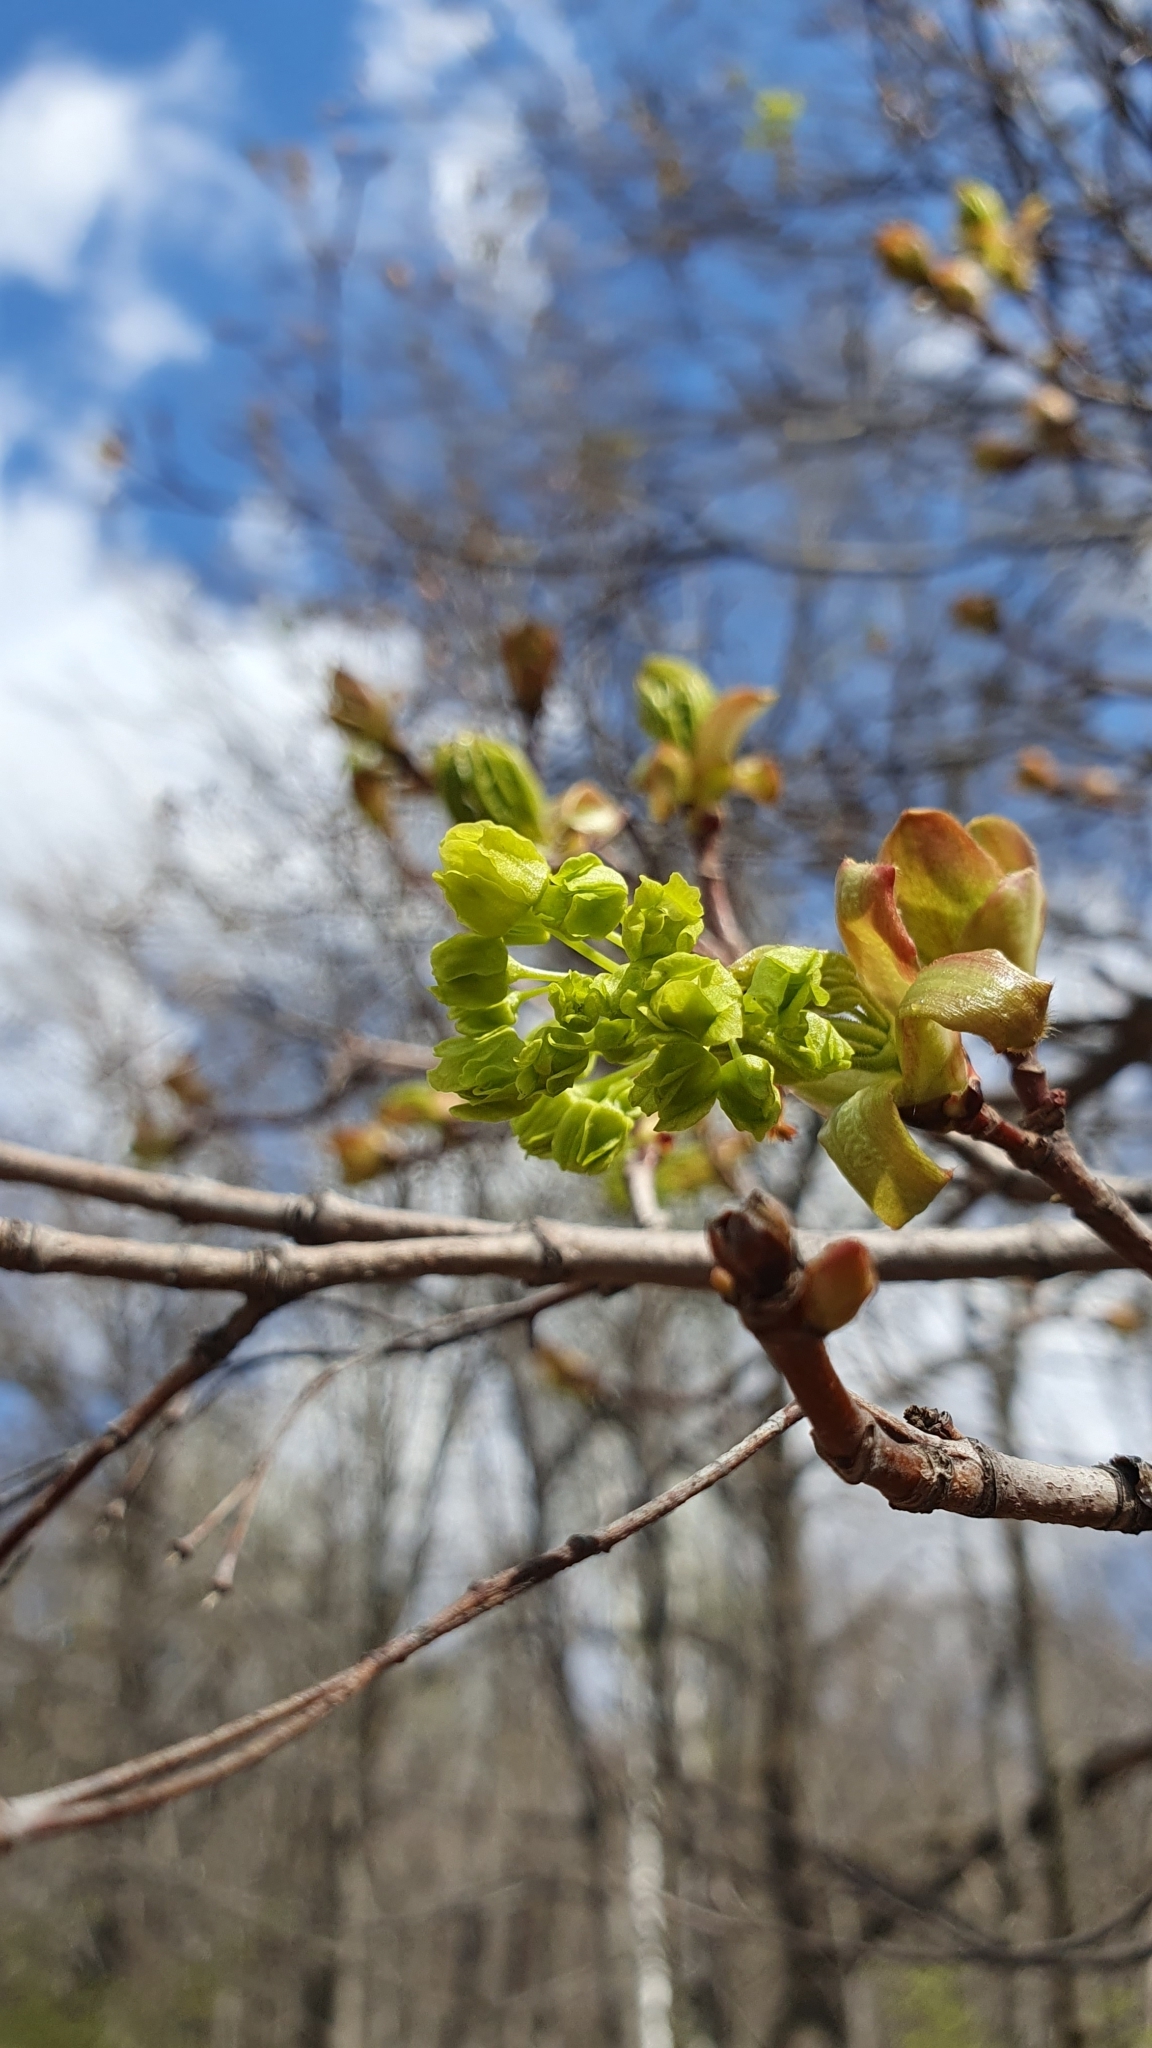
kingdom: Plantae
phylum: Tracheophyta
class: Magnoliopsida
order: Sapindales
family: Sapindaceae
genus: Acer
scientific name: Acer platanoides
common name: Norway maple
